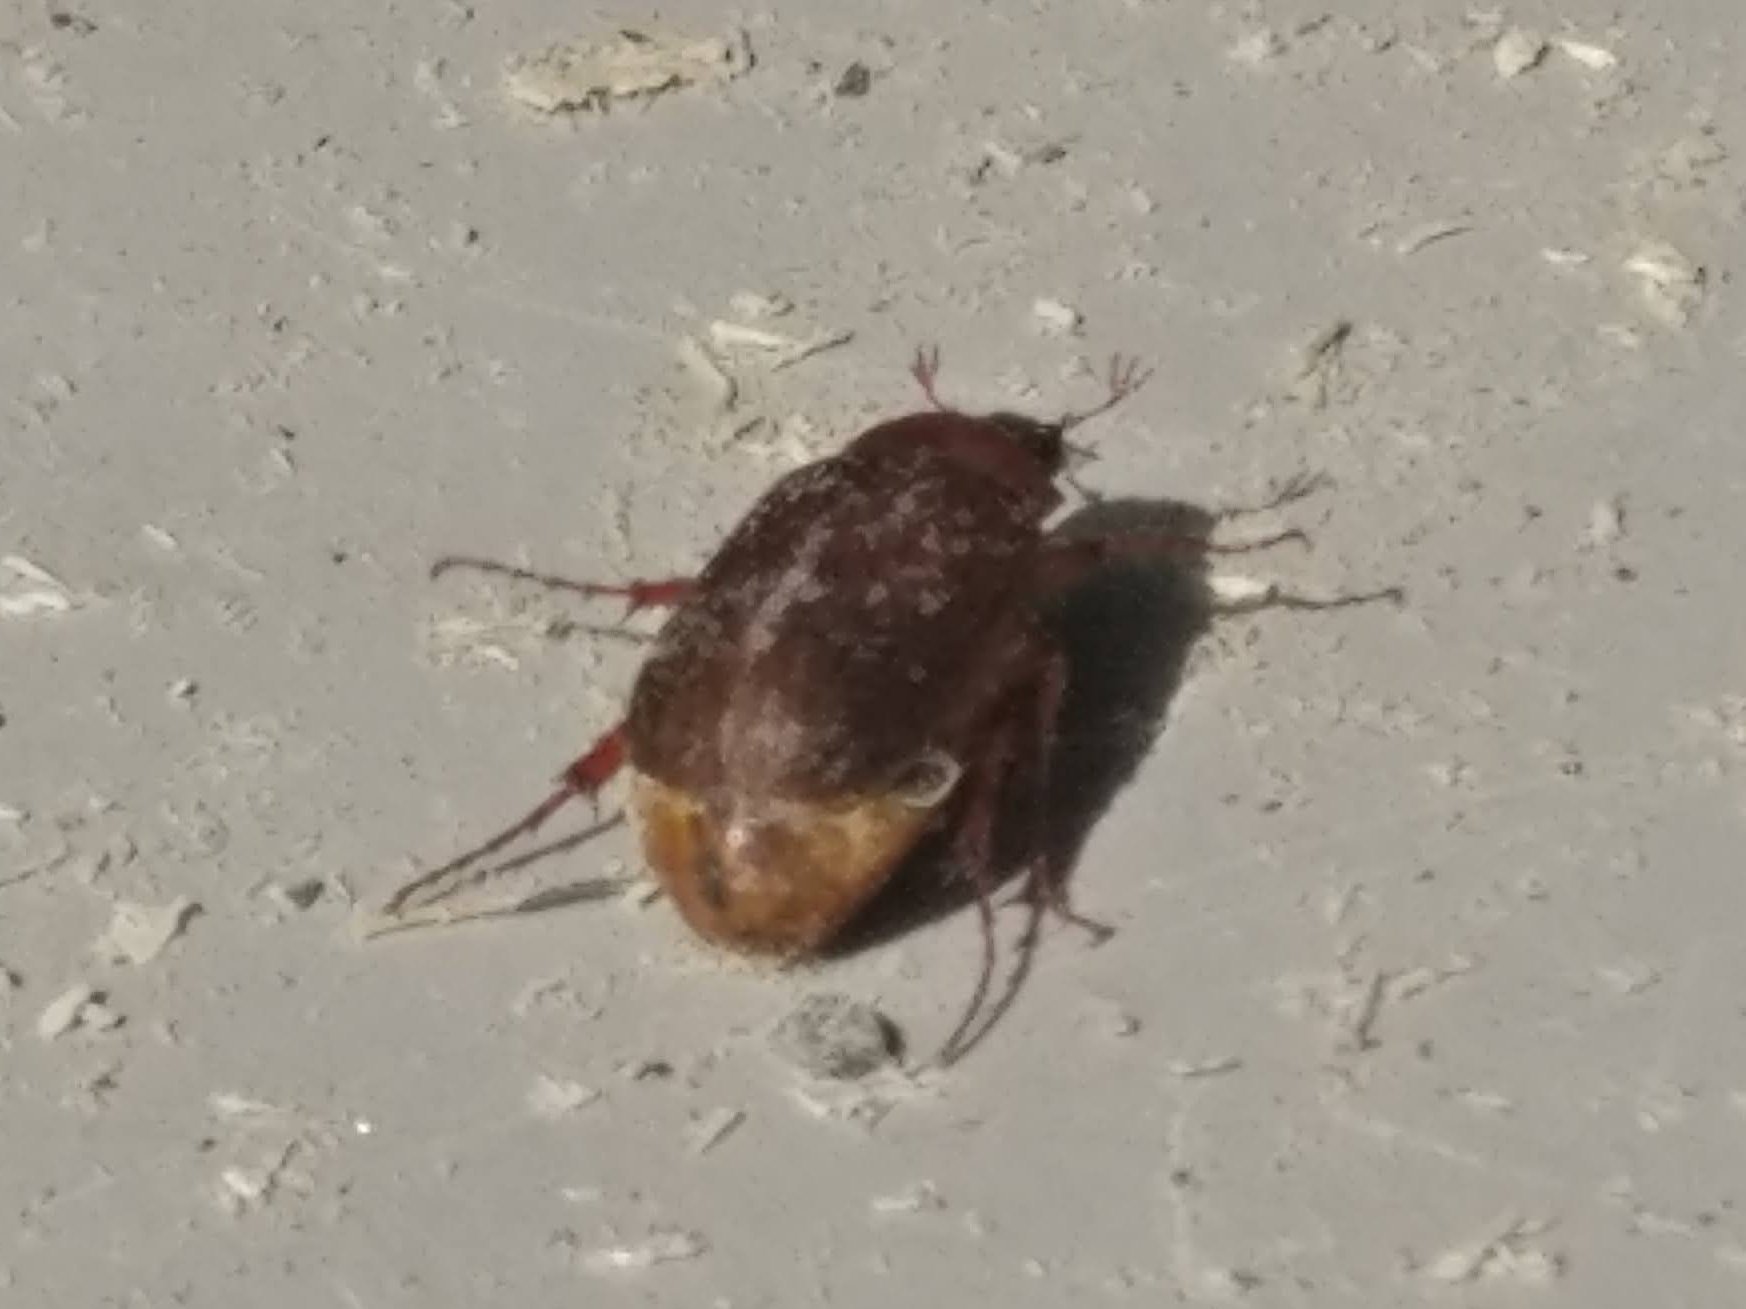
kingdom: Animalia
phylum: Arthropoda
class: Insecta
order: Coleoptera
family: Scarabaeidae
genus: Serica
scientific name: Serica brunnea
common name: Brown chafer
